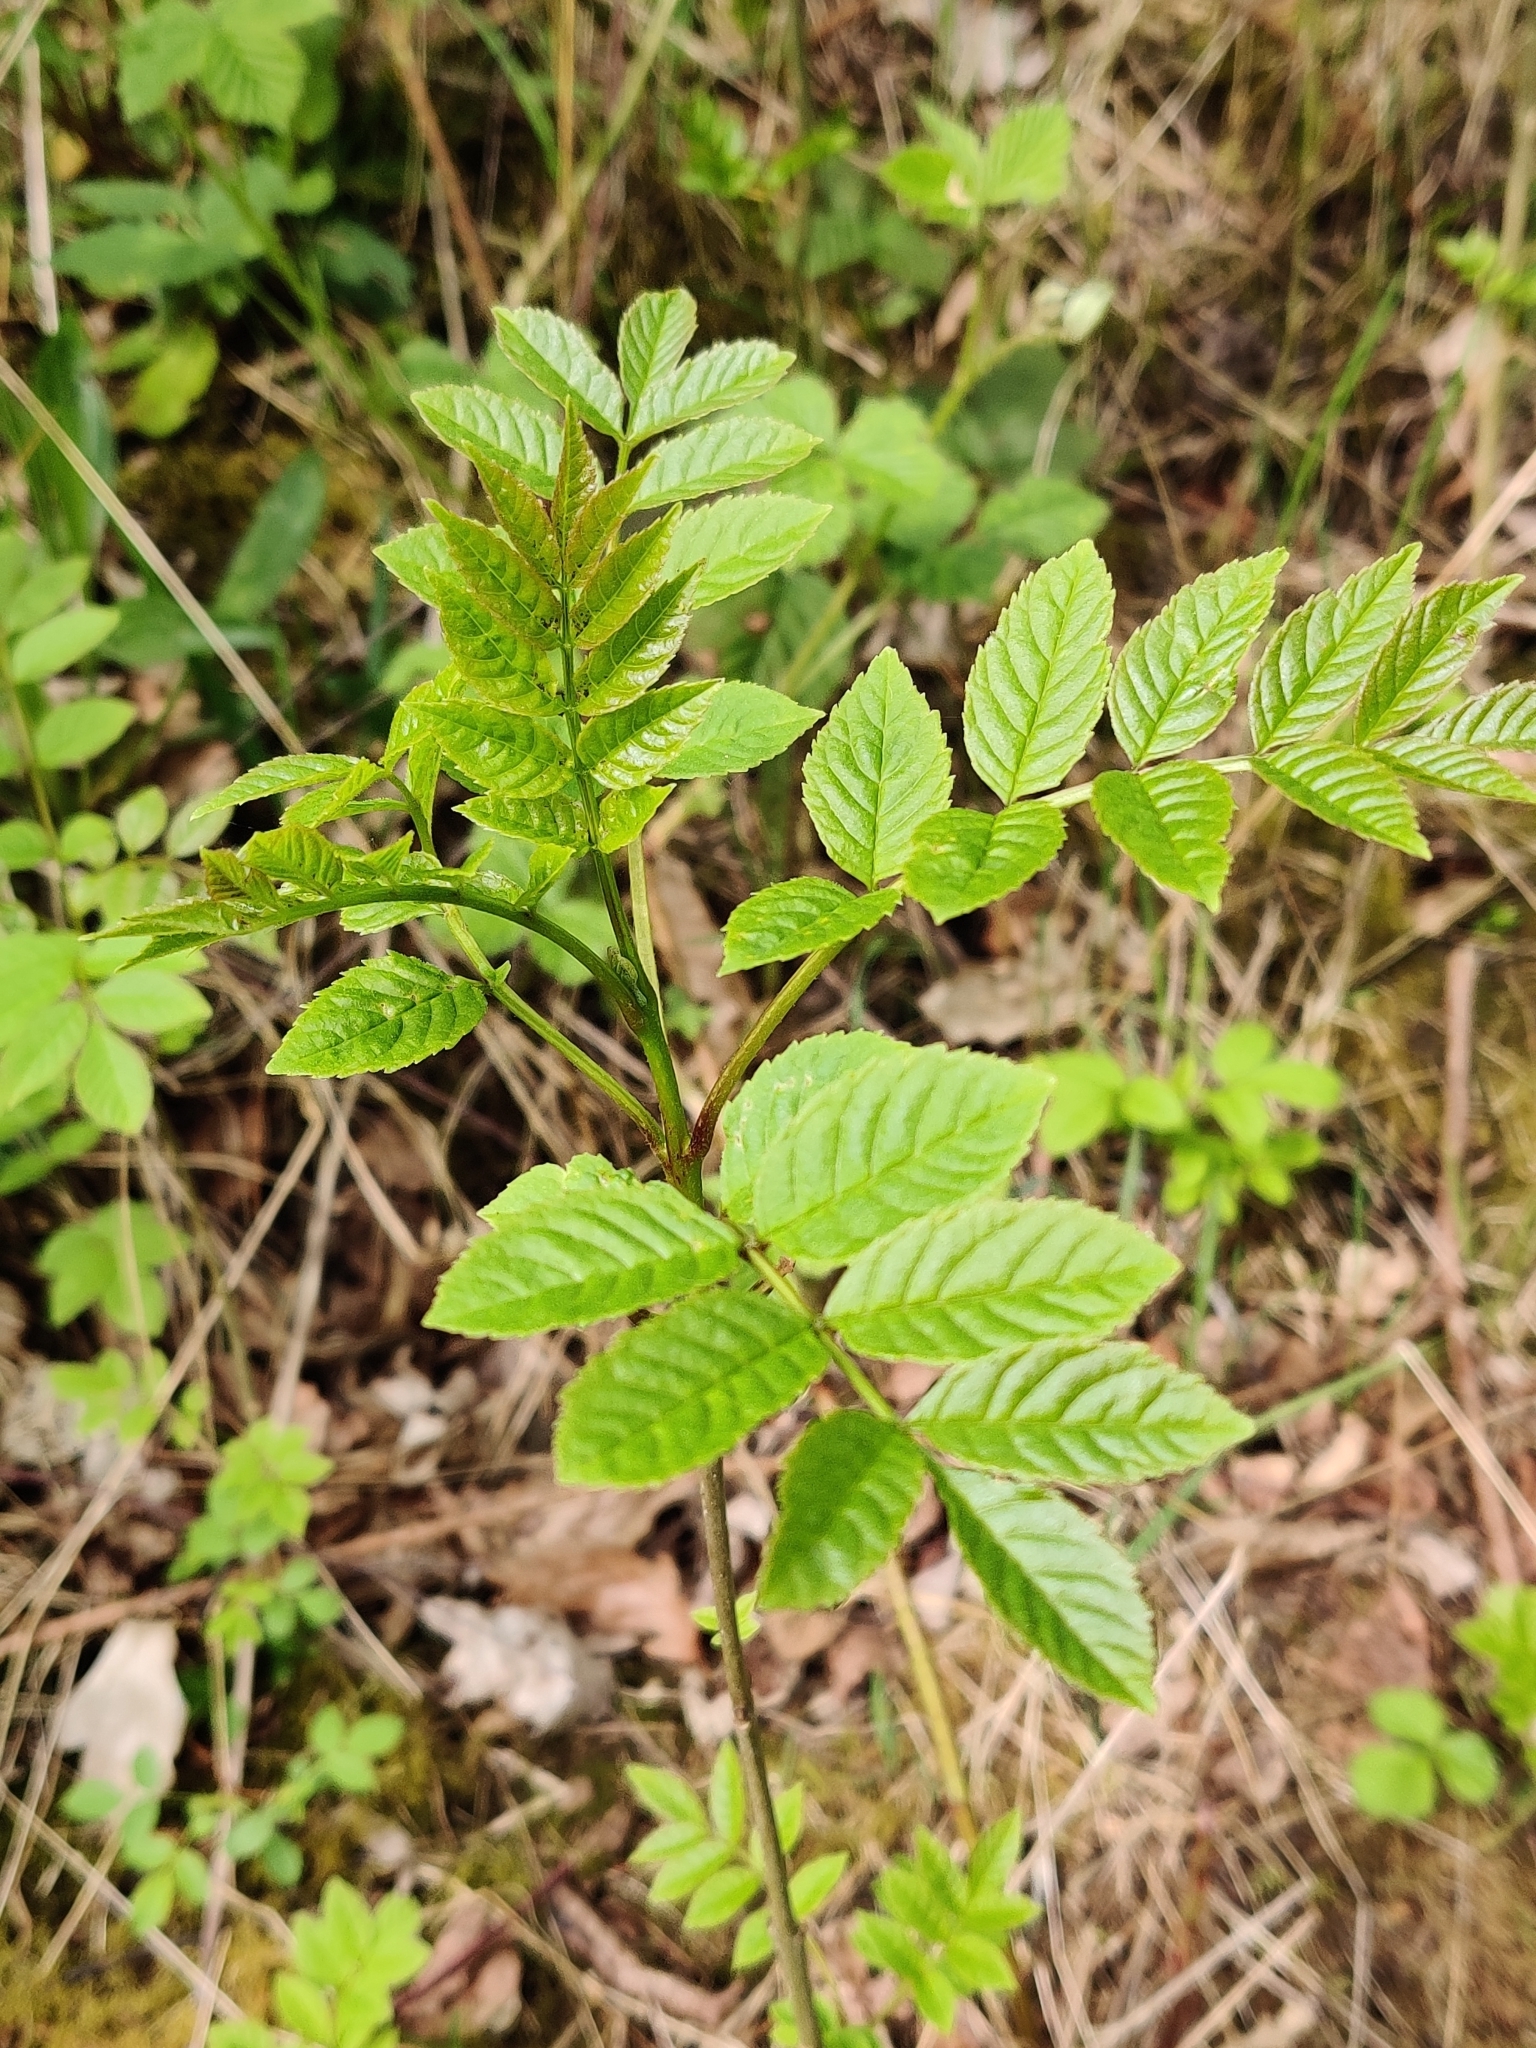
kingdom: Plantae
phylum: Tracheophyta
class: Magnoliopsida
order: Lamiales
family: Oleaceae
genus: Fraxinus
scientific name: Fraxinus excelsior
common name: European ash
